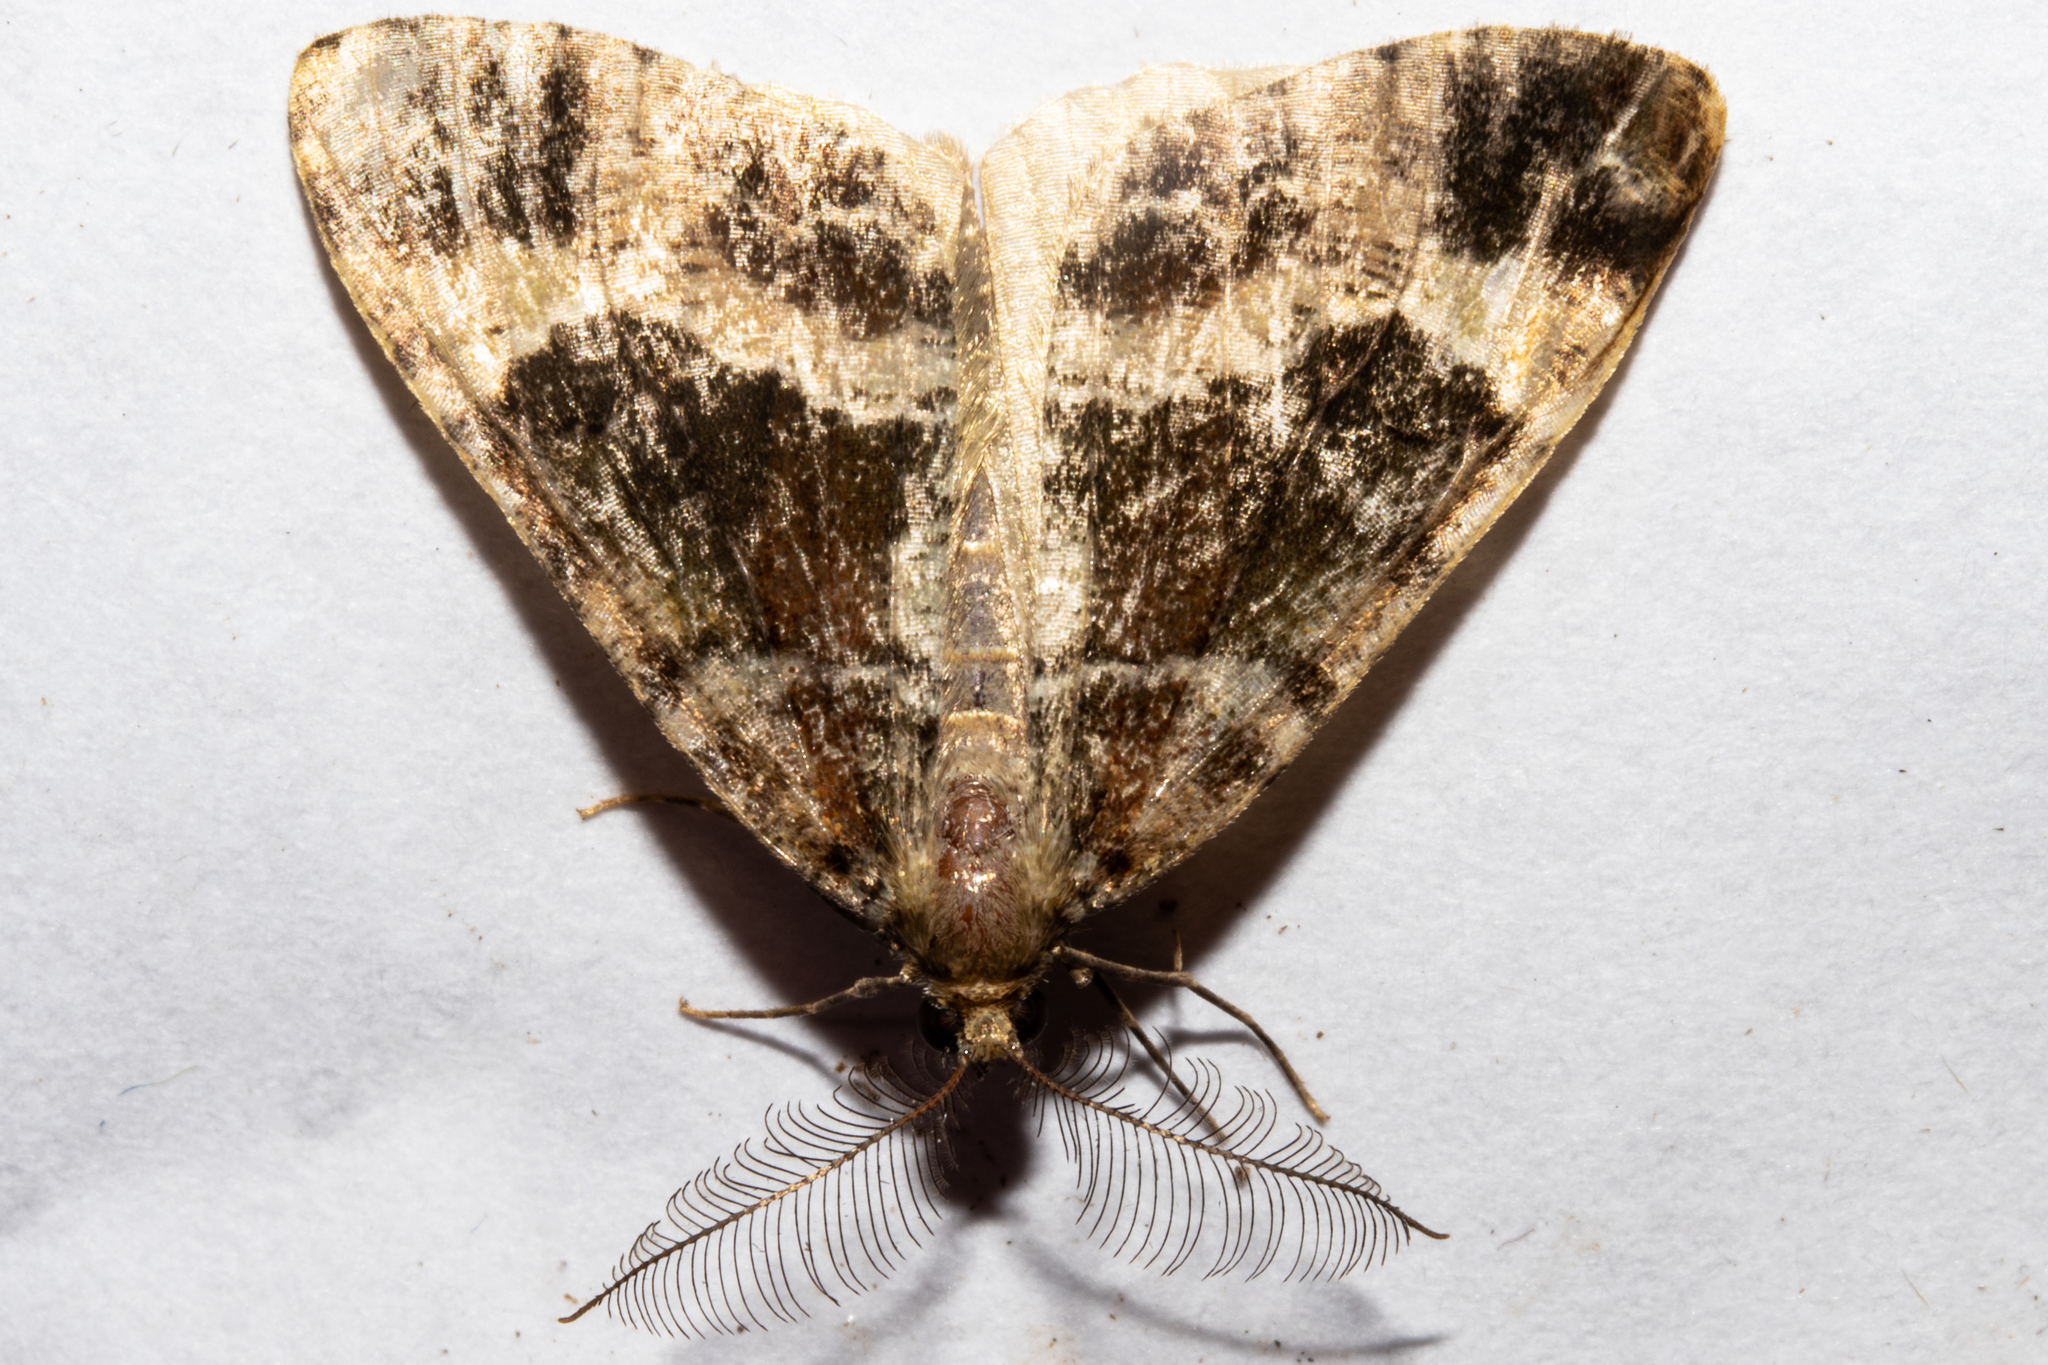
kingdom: Animalia
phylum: Arthropoda
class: Insecta
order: Lepidoptera
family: Geometridae
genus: Pseudocoremia
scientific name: Pseudocoremia productata
